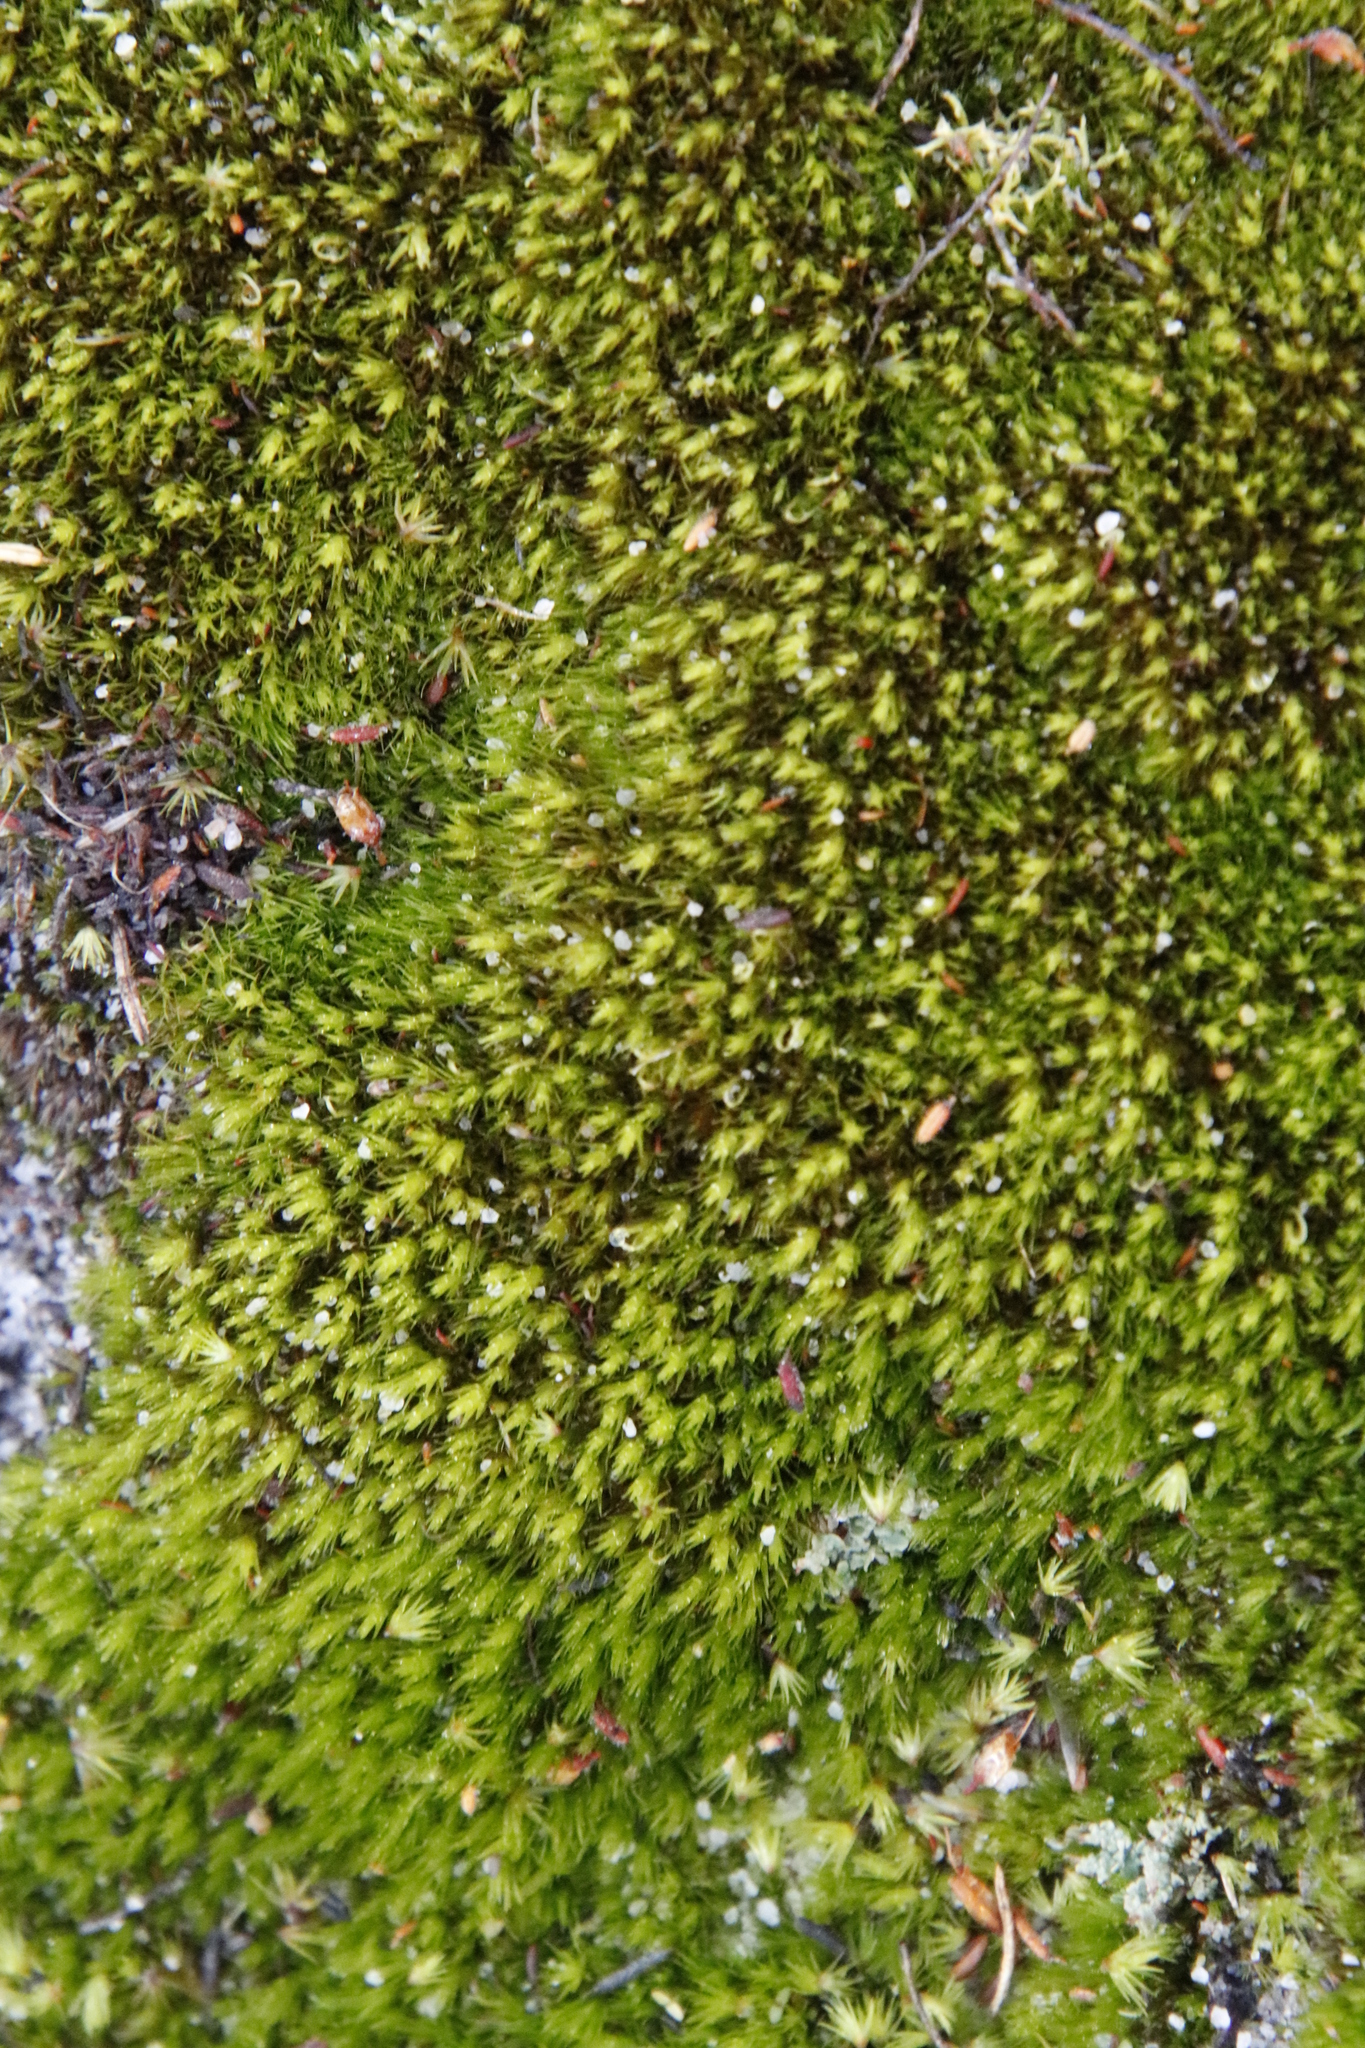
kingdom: Plantae
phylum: Bryophyta
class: Bryopsida
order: Dicranales
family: Leucobryaceae
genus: Campylopus
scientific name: Campylopus bartramiaceus
